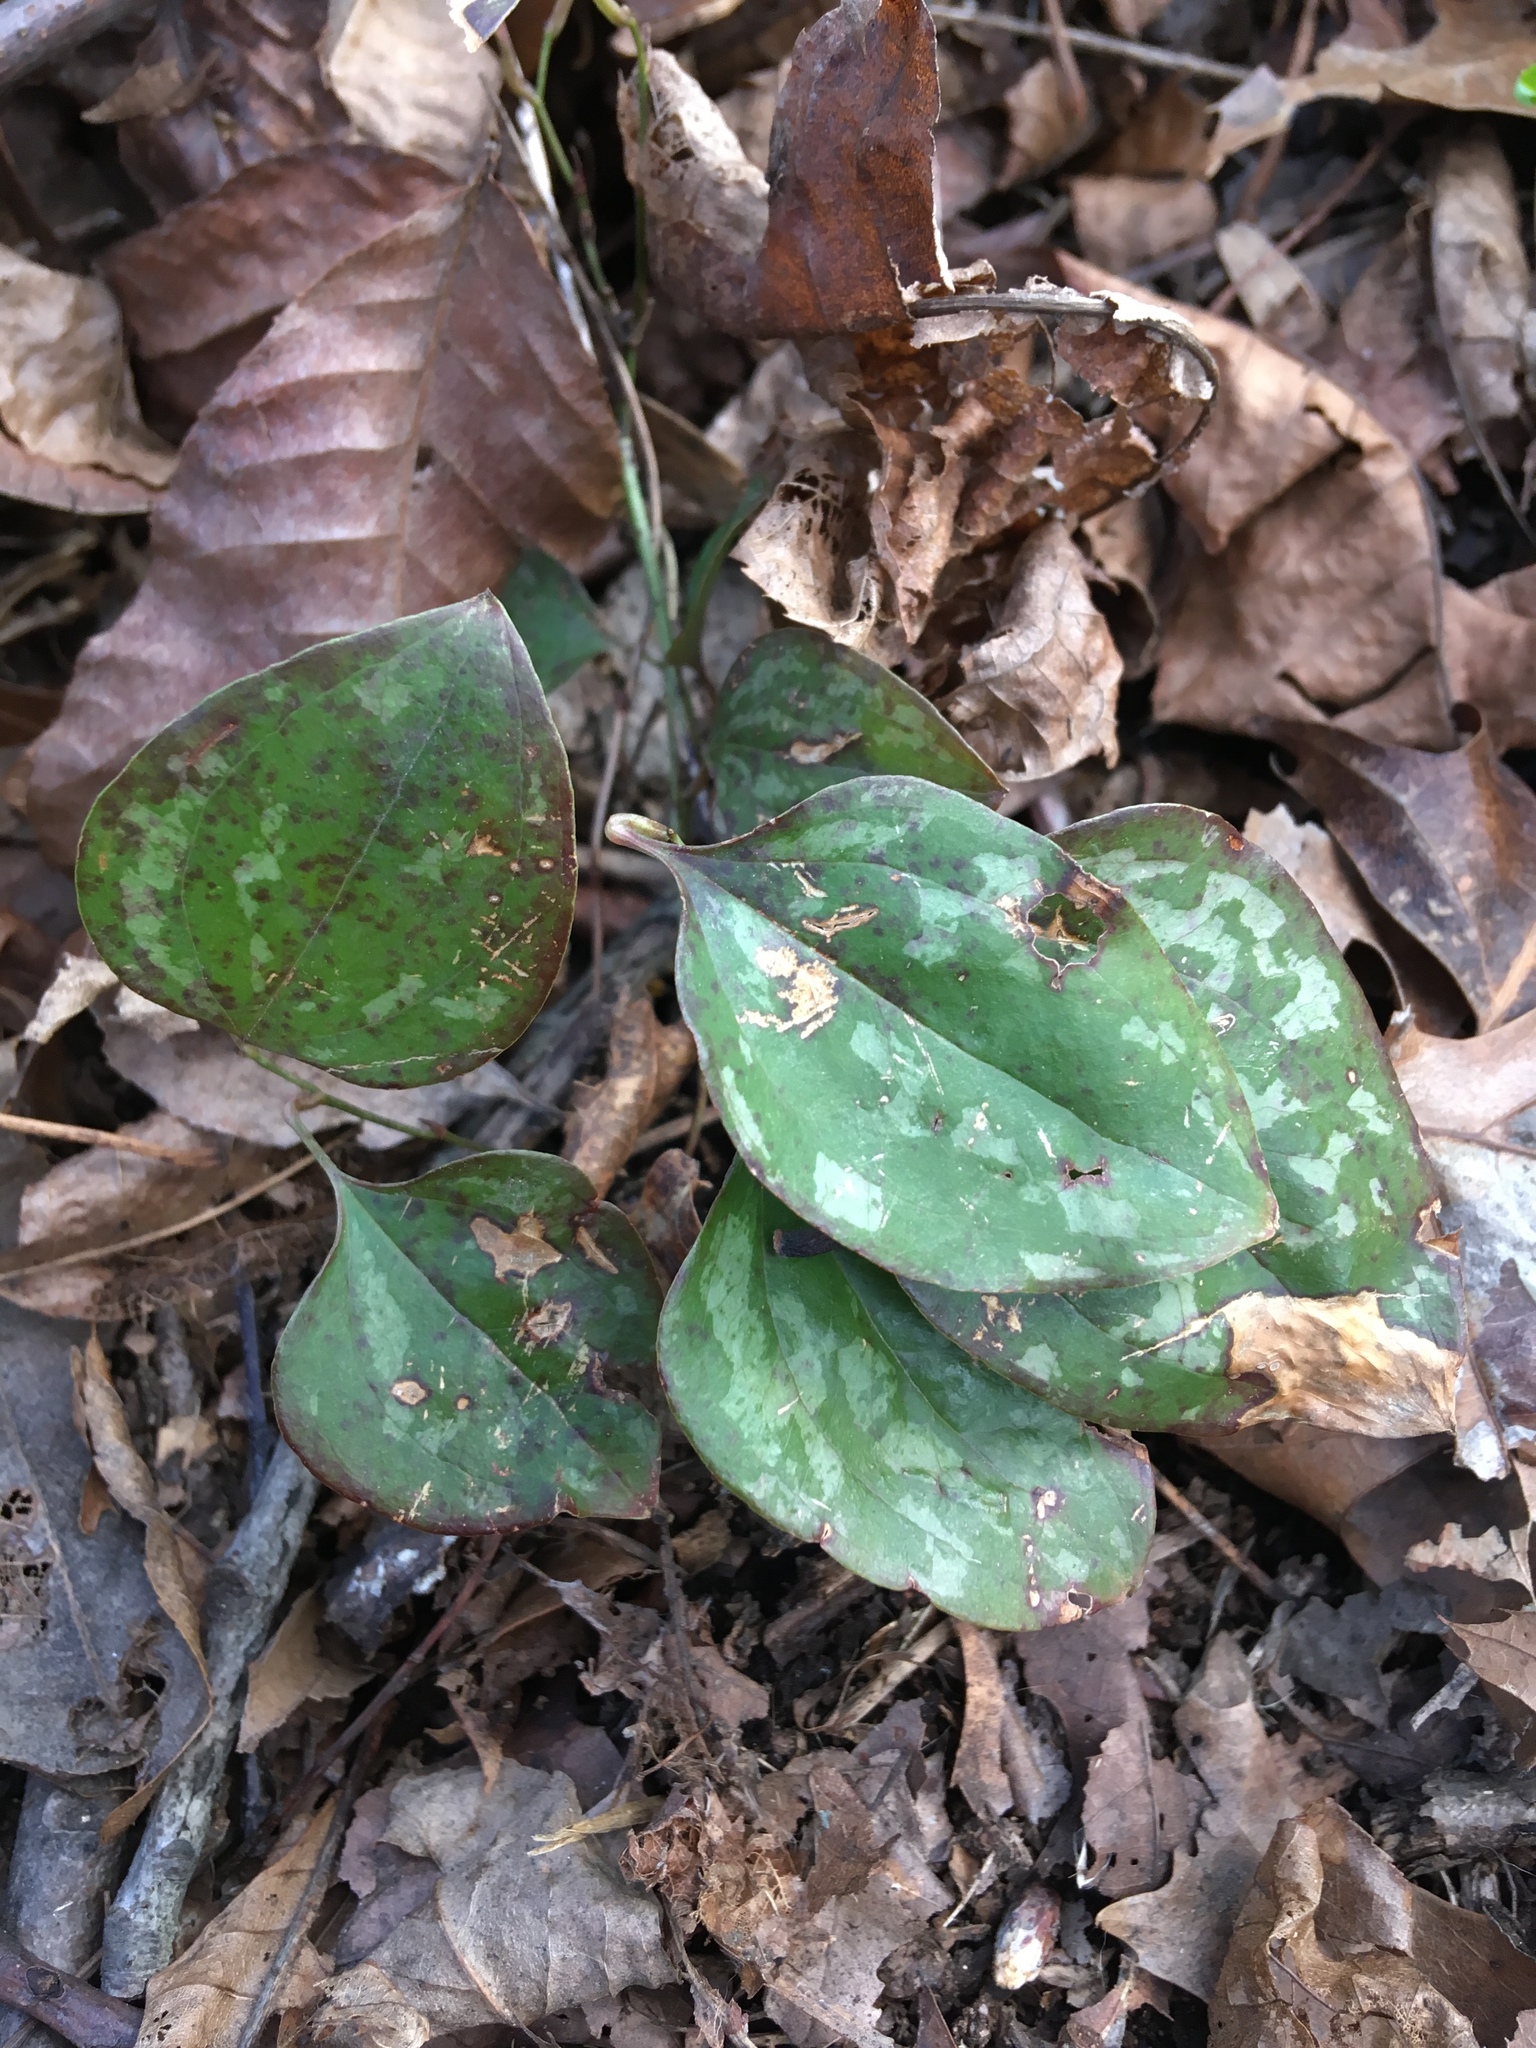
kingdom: Plantae
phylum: Tracheophyta
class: Liliopsida
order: Liliales
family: Smilacaceae
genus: Smilax
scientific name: Smilax glauca
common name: Cat greenbrier
